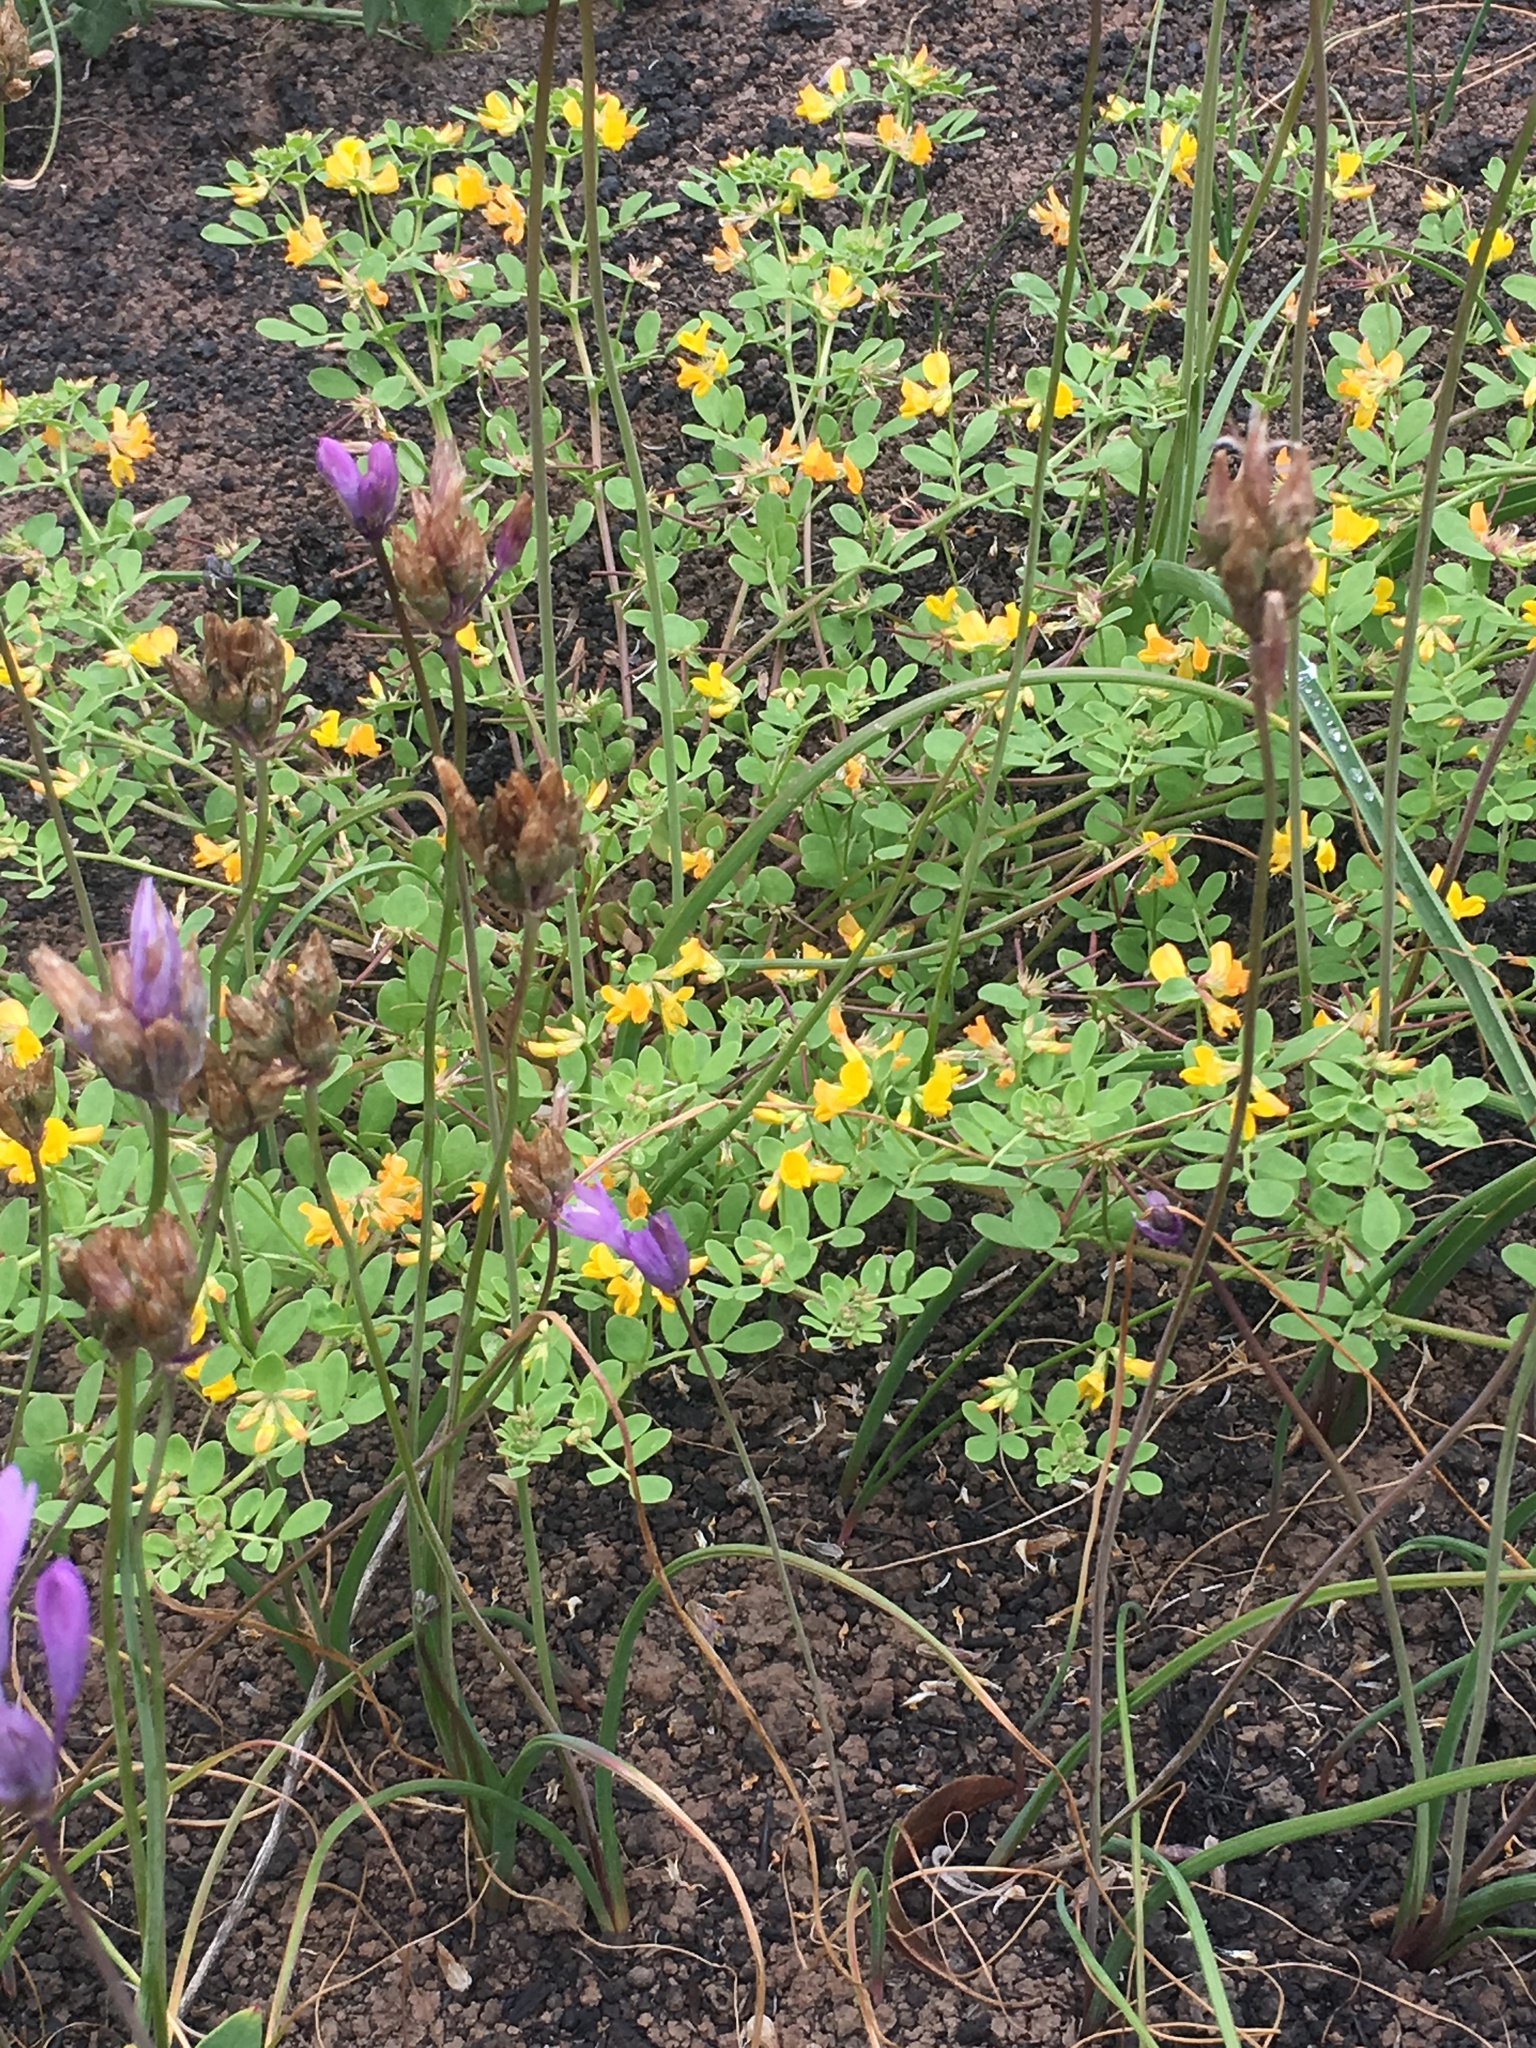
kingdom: Plantae
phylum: Tracheophyta
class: Magnoliopsida
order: Fabales
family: Fabaceae
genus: Acmispon
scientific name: Acmispon maritimus
